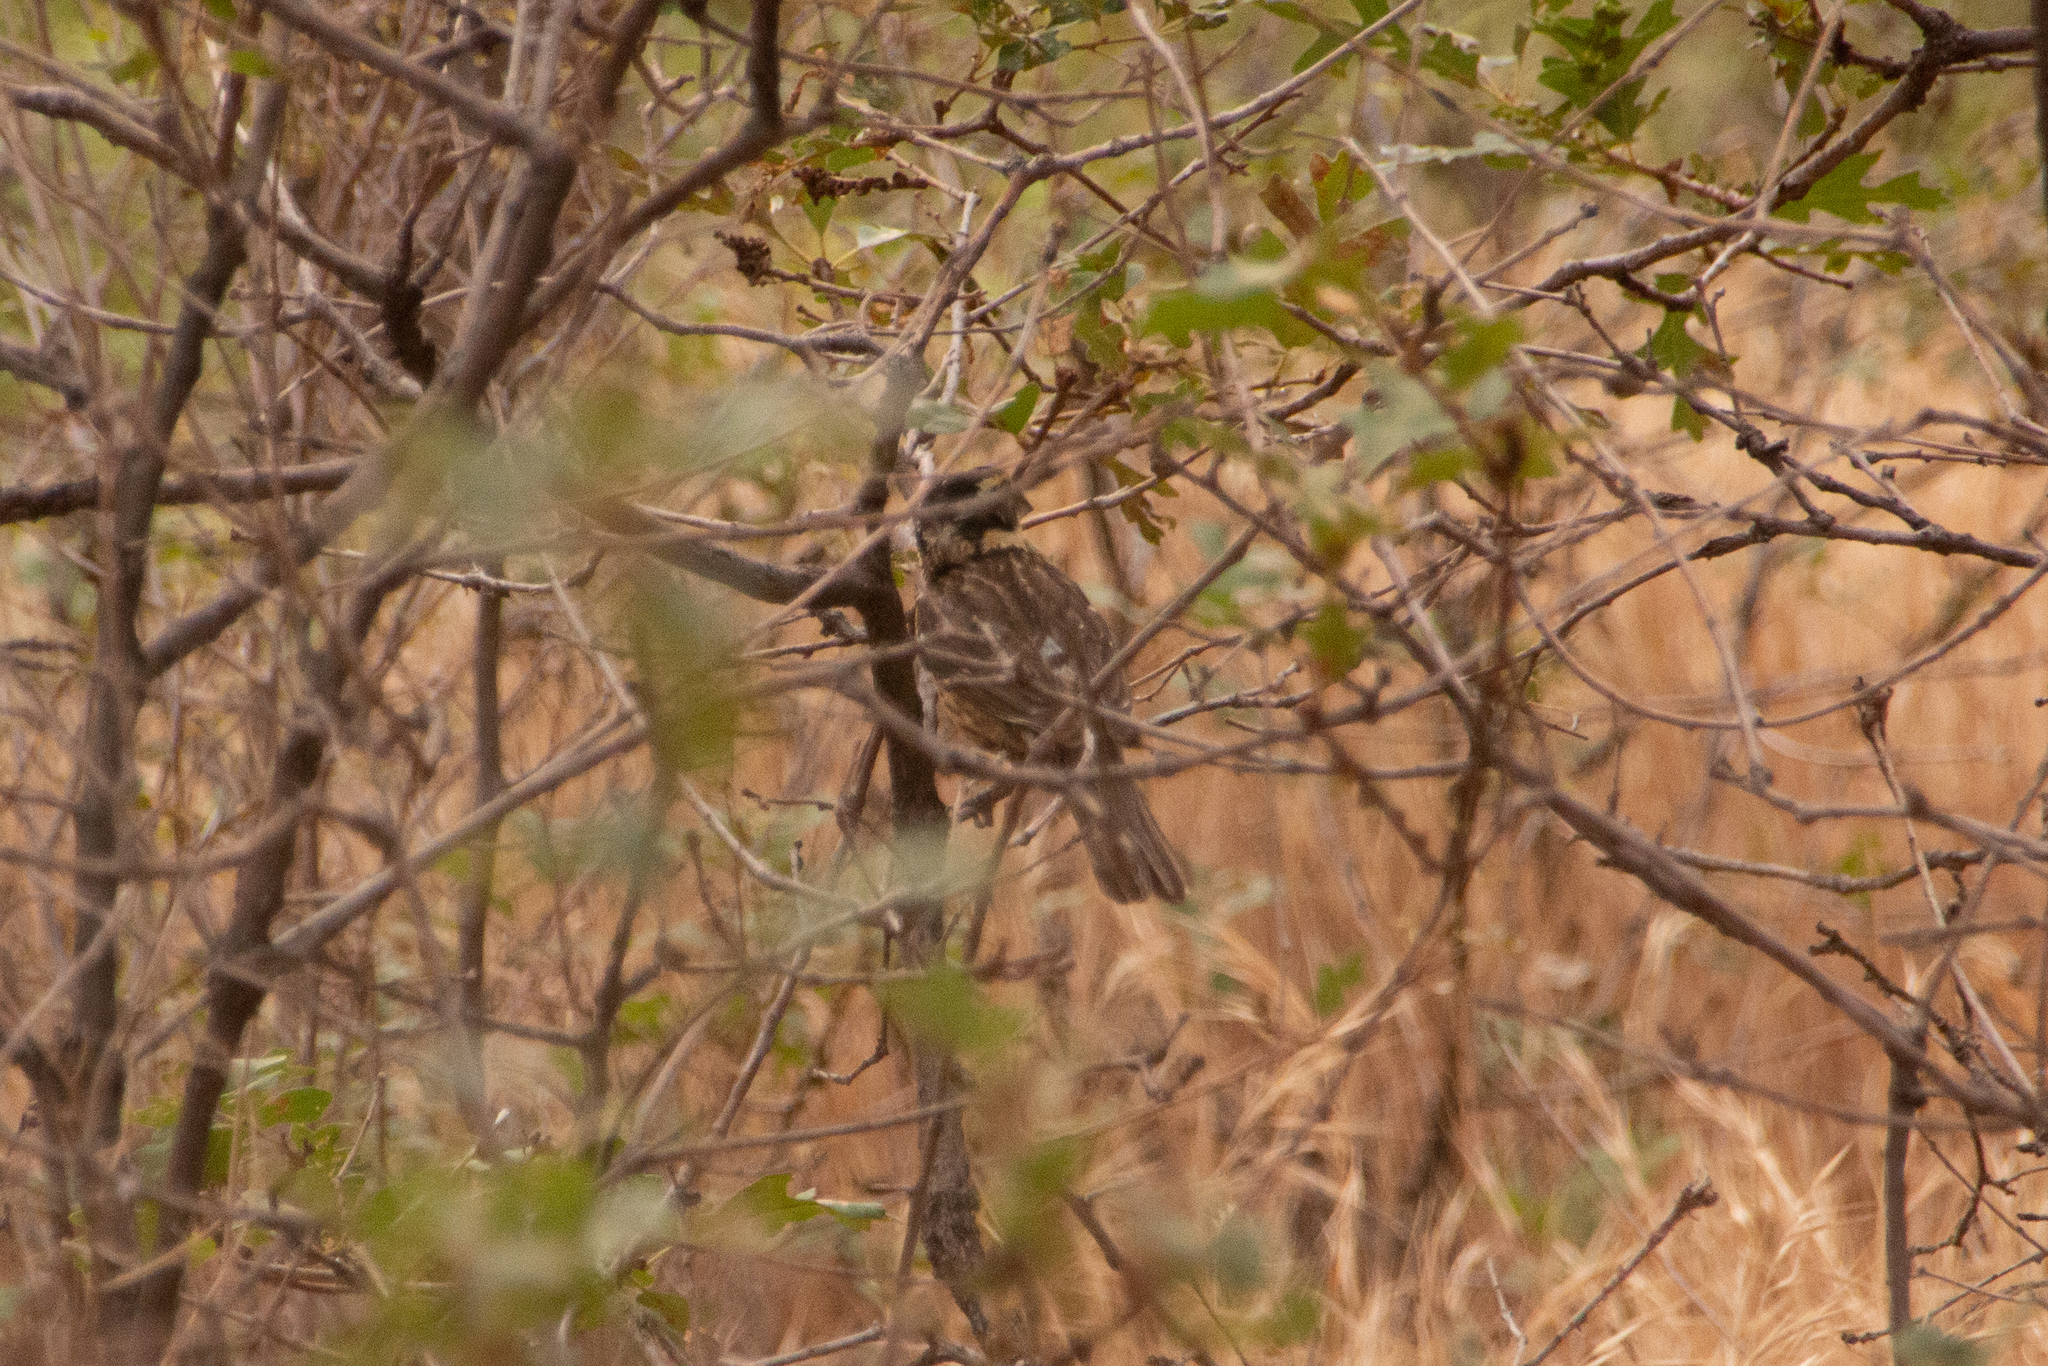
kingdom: Animalia
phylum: Chordata
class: Aves
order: Passeriformes
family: Cardinalidae
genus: Pheucticus
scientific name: Pheucticus melanocephalus
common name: Black-headed grosbeak
